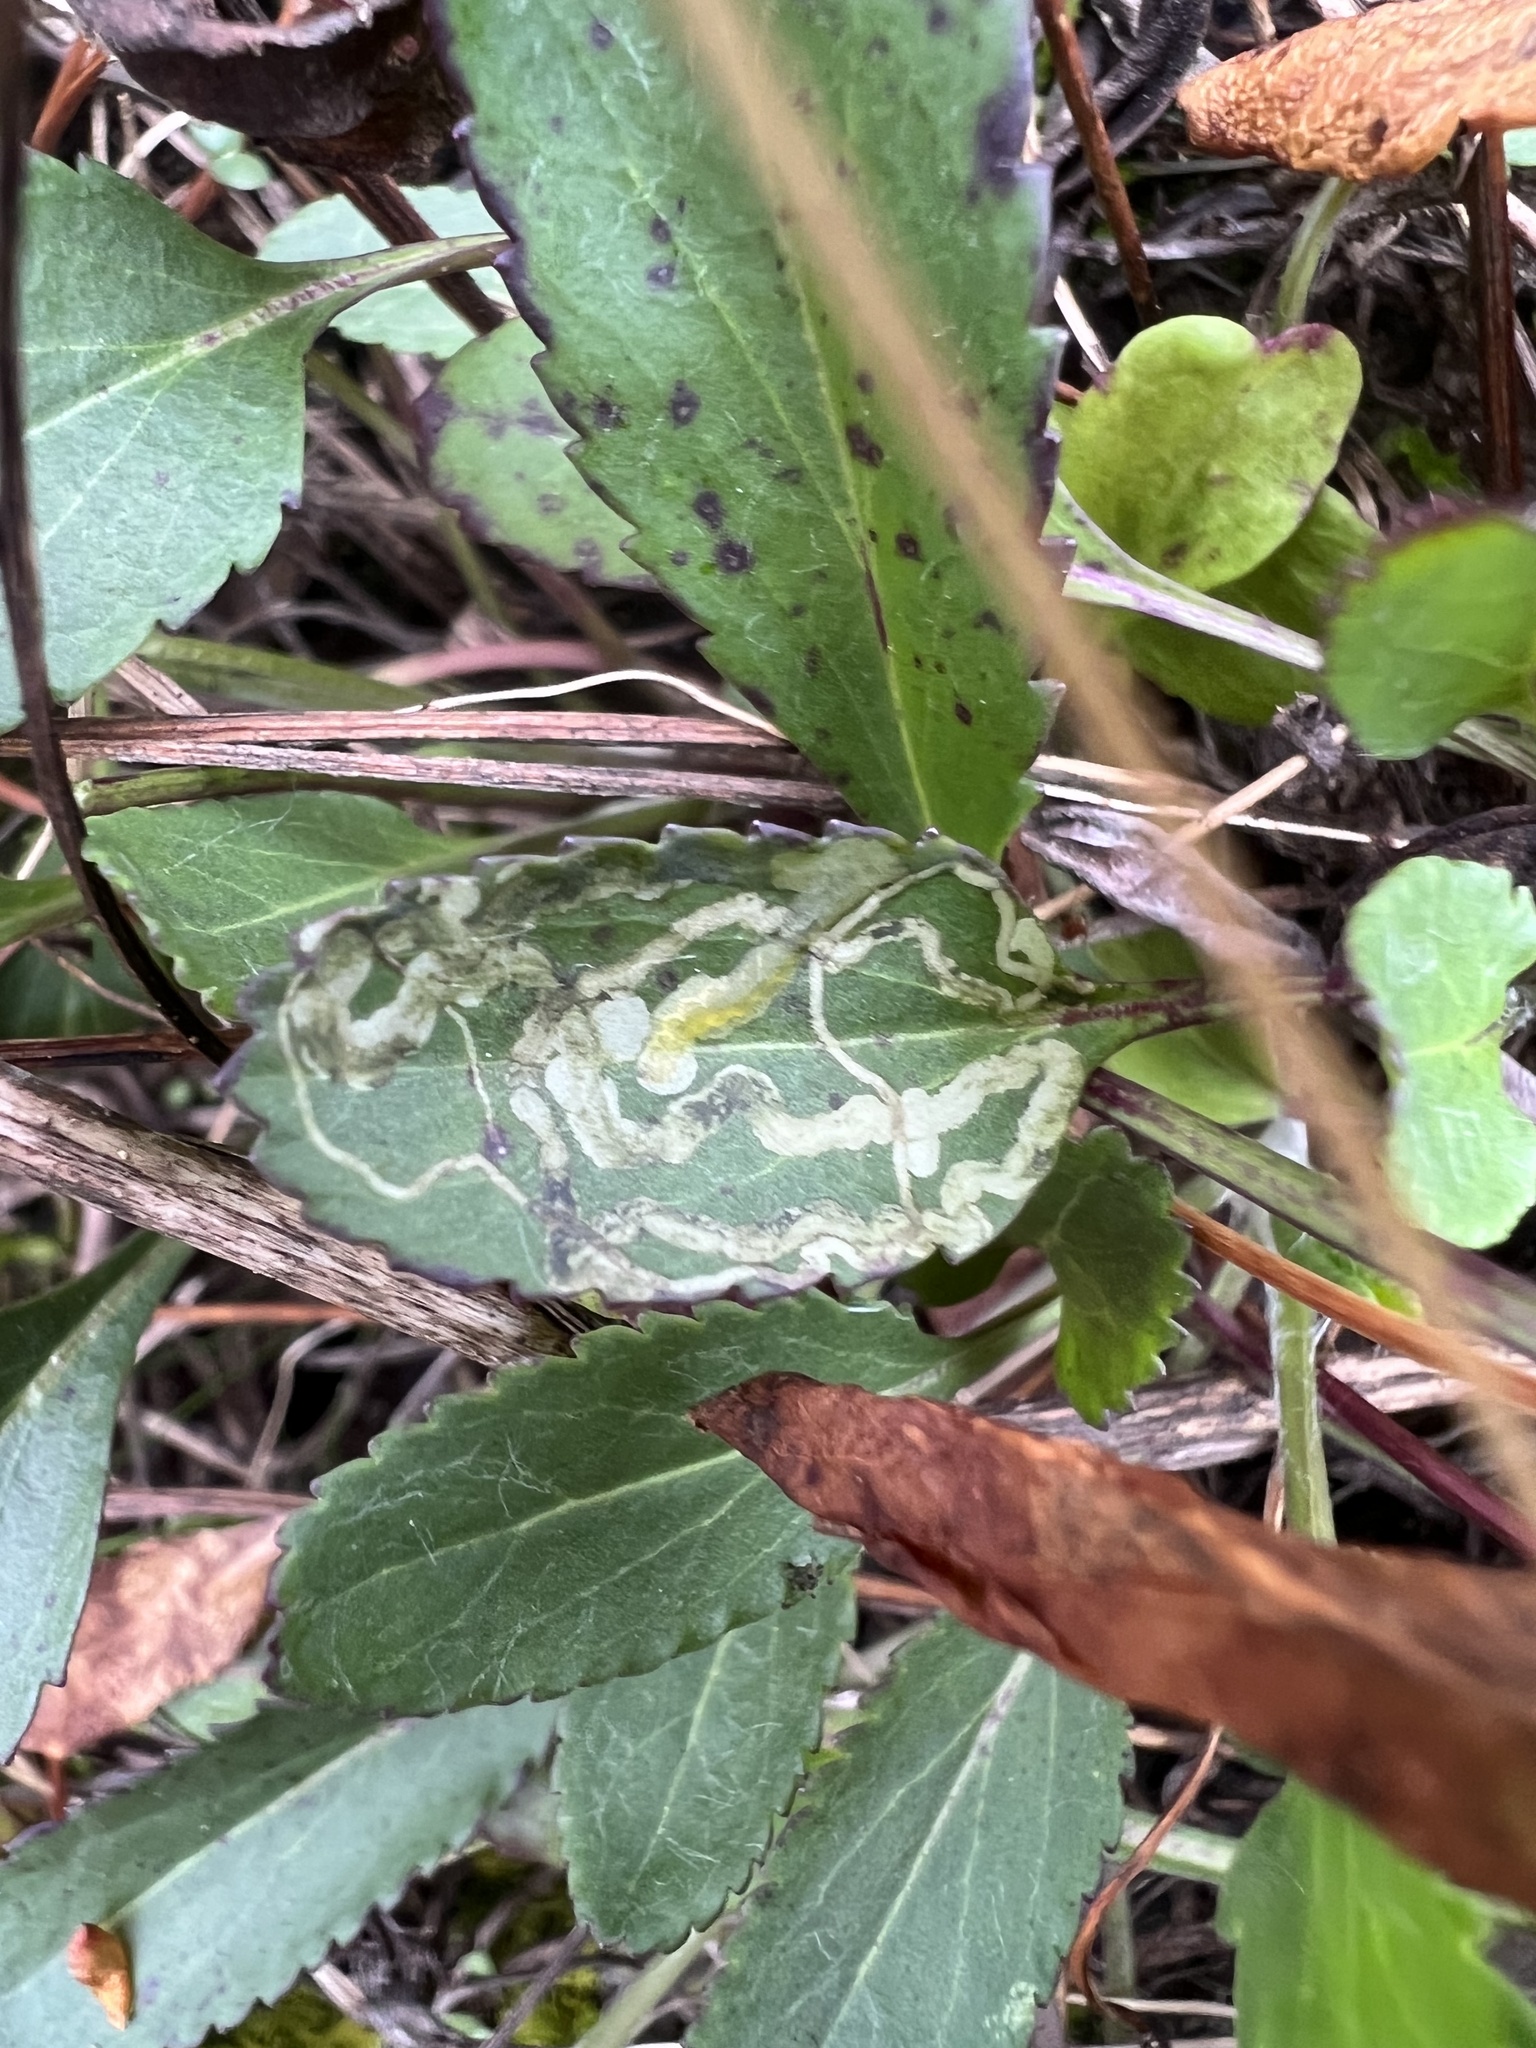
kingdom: Animalia
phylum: Arthropoda
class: Insecta
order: Lepidoptera
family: Gracillariidae
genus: Phyllocnistis
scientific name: Phyllocnistis insignis
